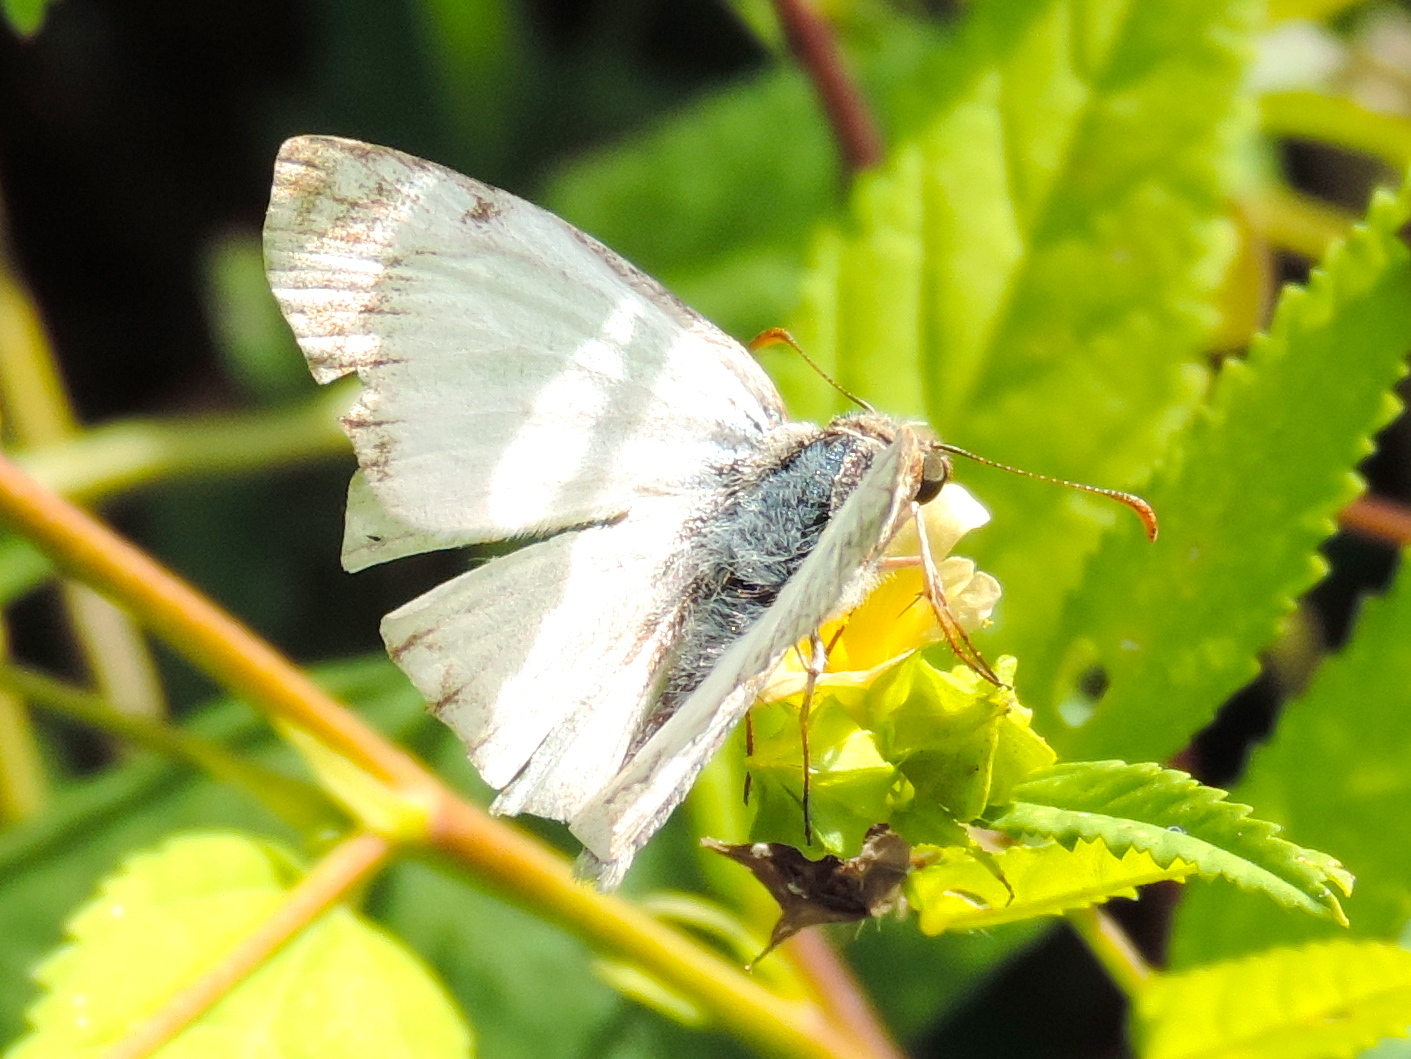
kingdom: Animalia
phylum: Arthropoda
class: Insecta
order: Lepidoptera
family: Hesperiidae
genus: Heliopetes
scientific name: Heliopetes macaira
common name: Turk's-cap white-skipper
